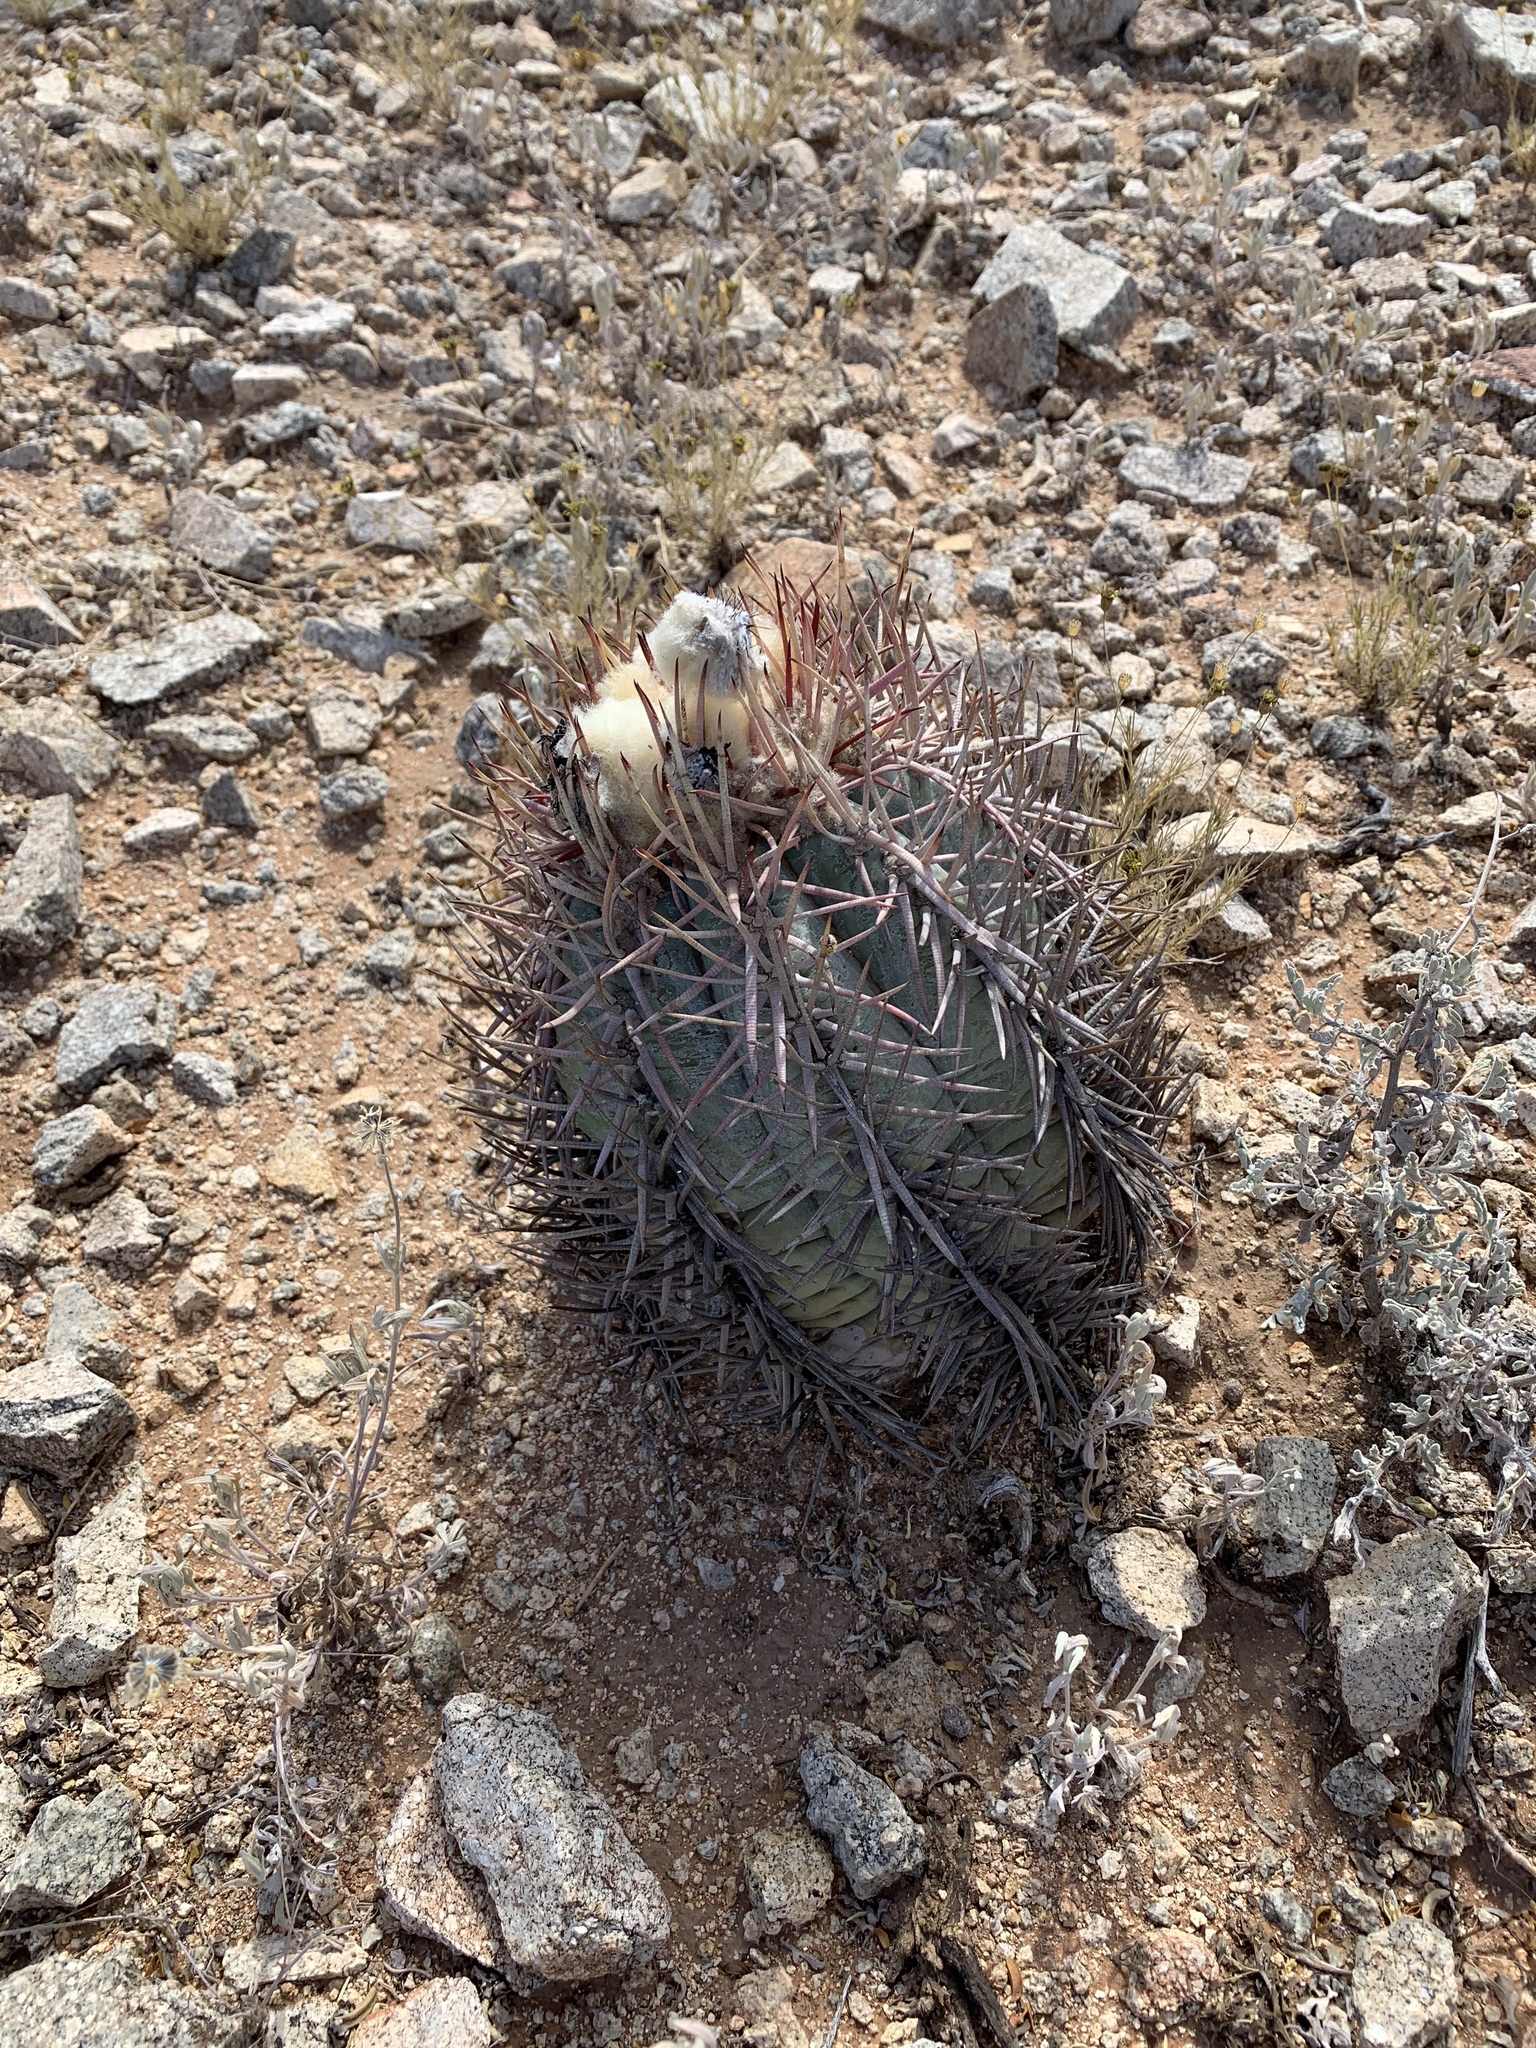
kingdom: Plantae
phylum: Tracheophyta
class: Magnoliopsida
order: Caryophyllales
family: Cactaceae
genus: Echinocactus
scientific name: Echinocactus horizonthalonius
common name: Devilshead
